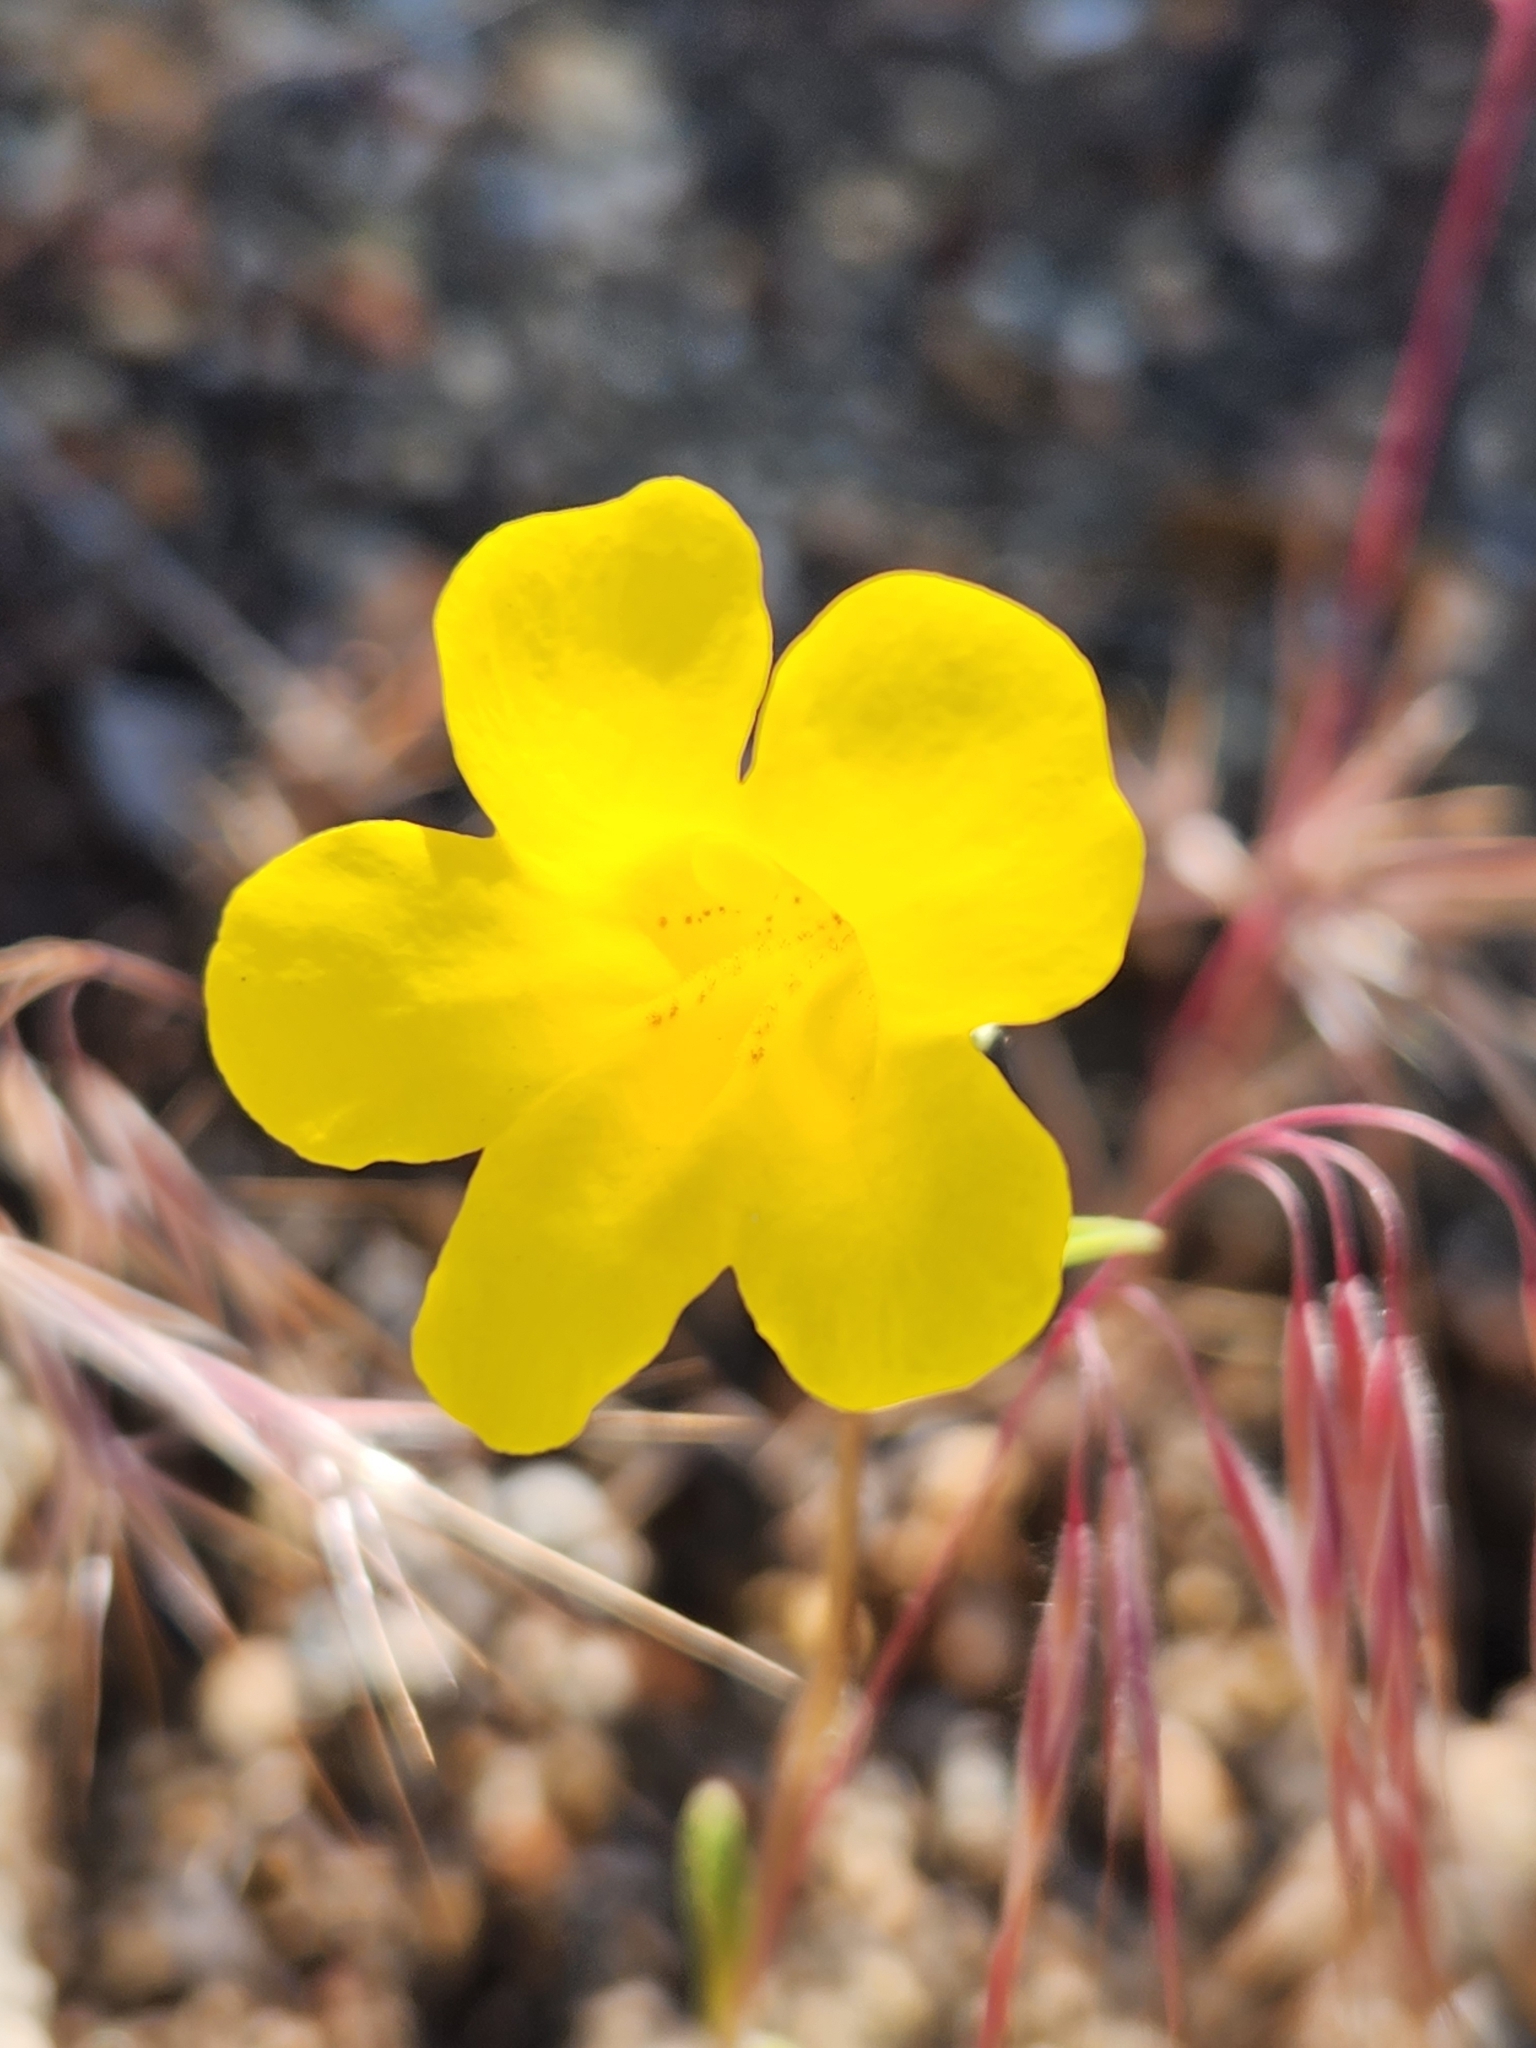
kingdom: Plantae
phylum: Tracheophyta
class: Magnoliopsida
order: Lamiales
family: Phrymaceae
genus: Diplacus
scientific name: Diplacus brevipes
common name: Wide-throat yellow monkey-flower
